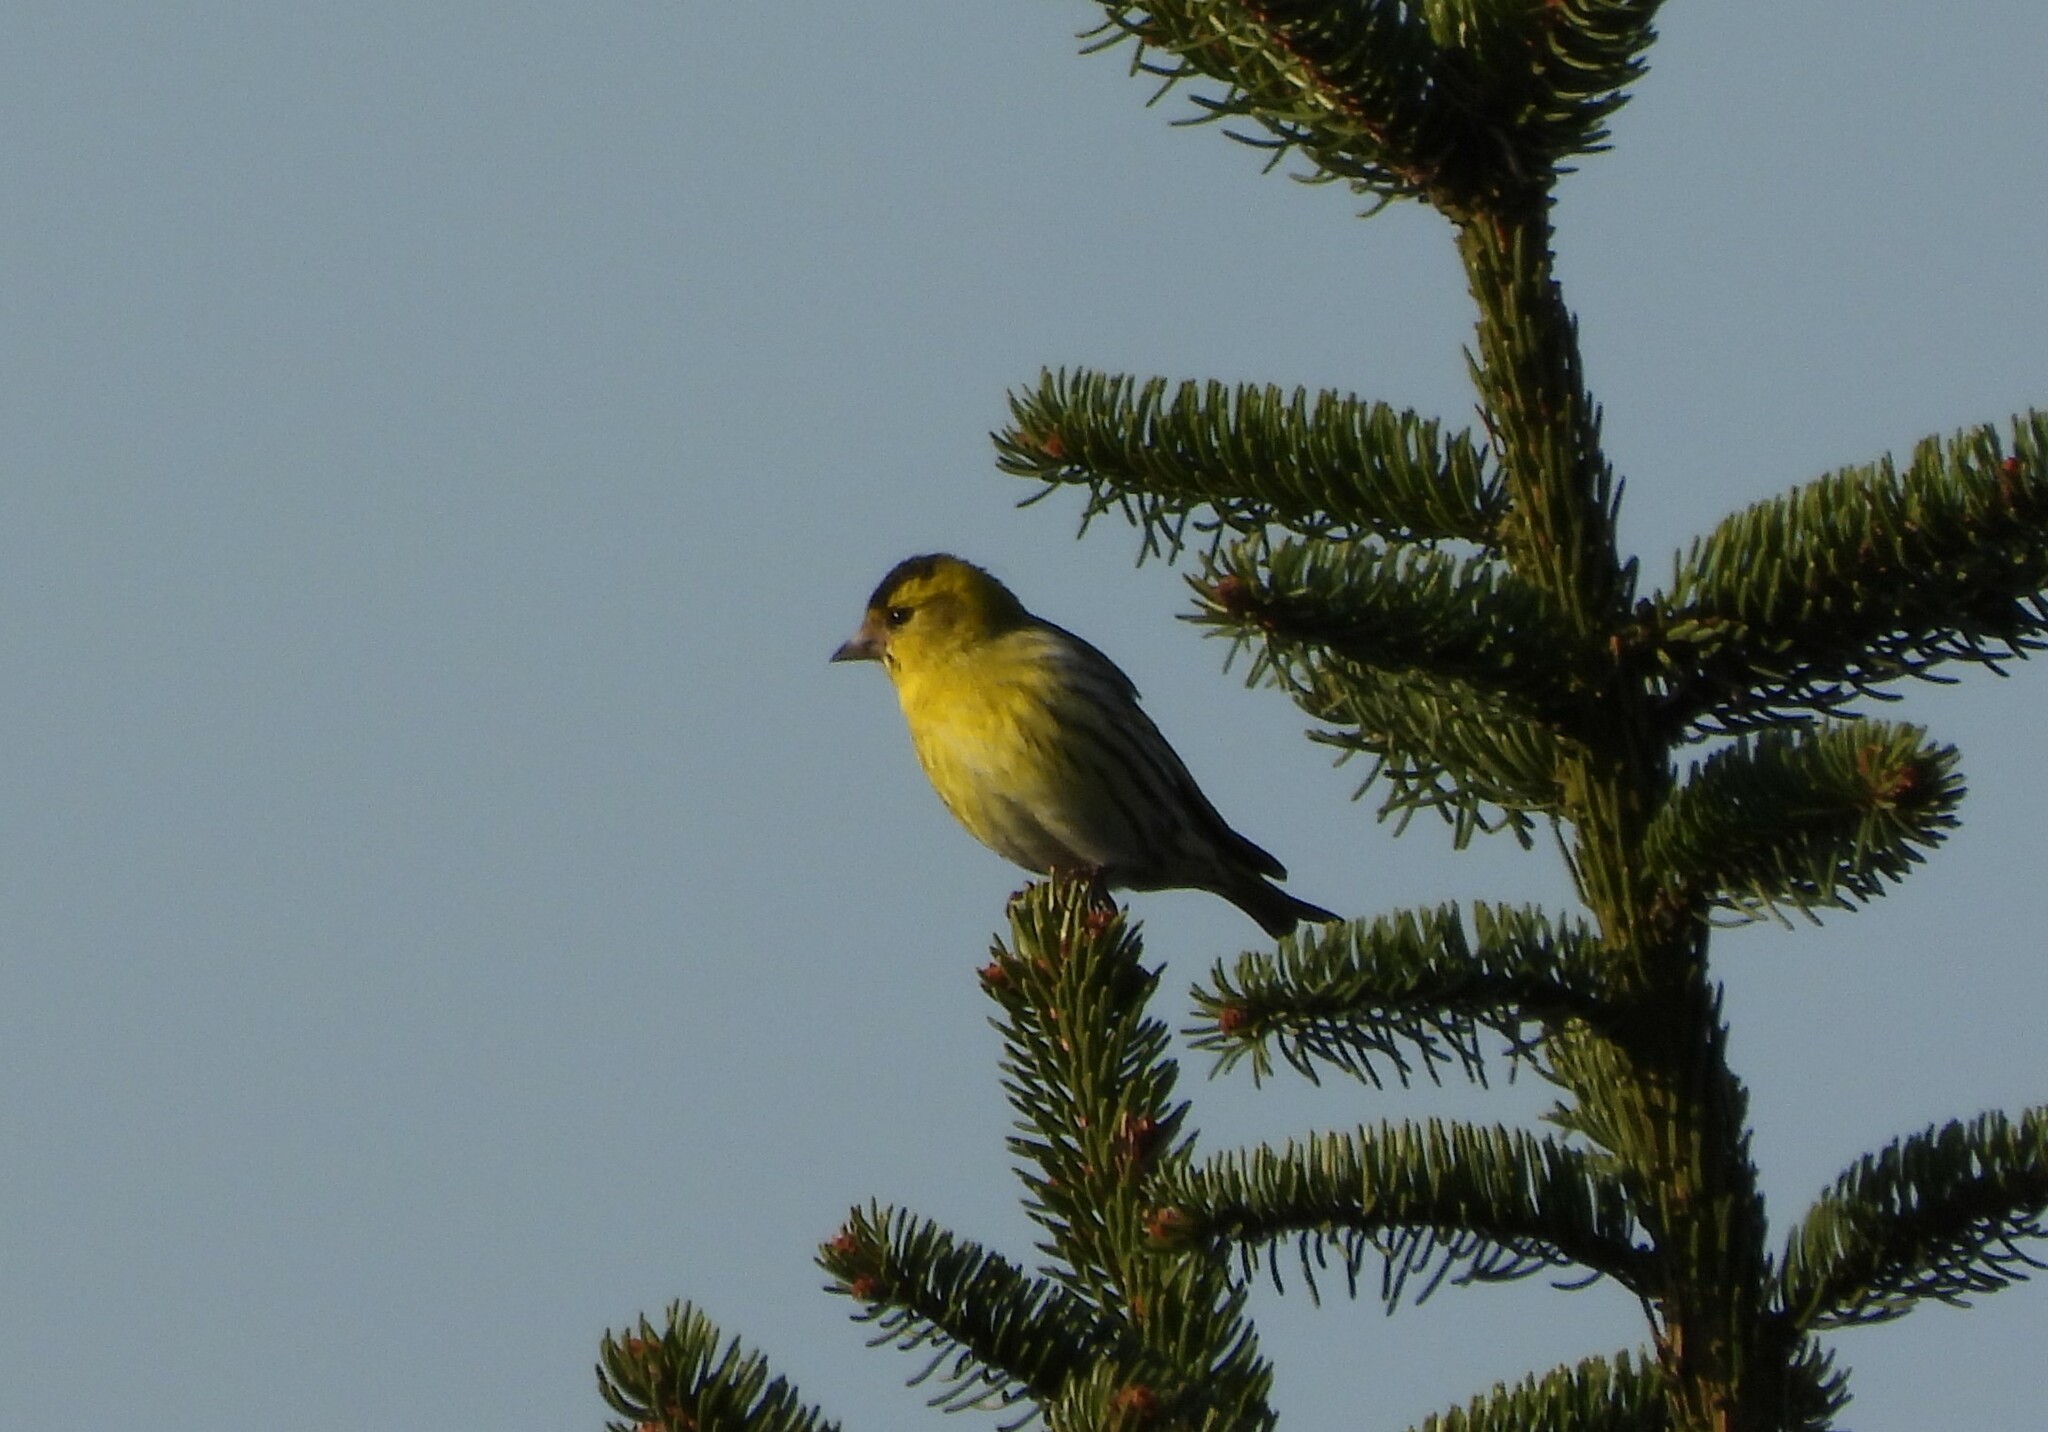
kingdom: Animalia
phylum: Chordata
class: Aves
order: Passeriformes
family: Fringillidae
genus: Spinus
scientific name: Spinus spinus
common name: Eurasian siskin
